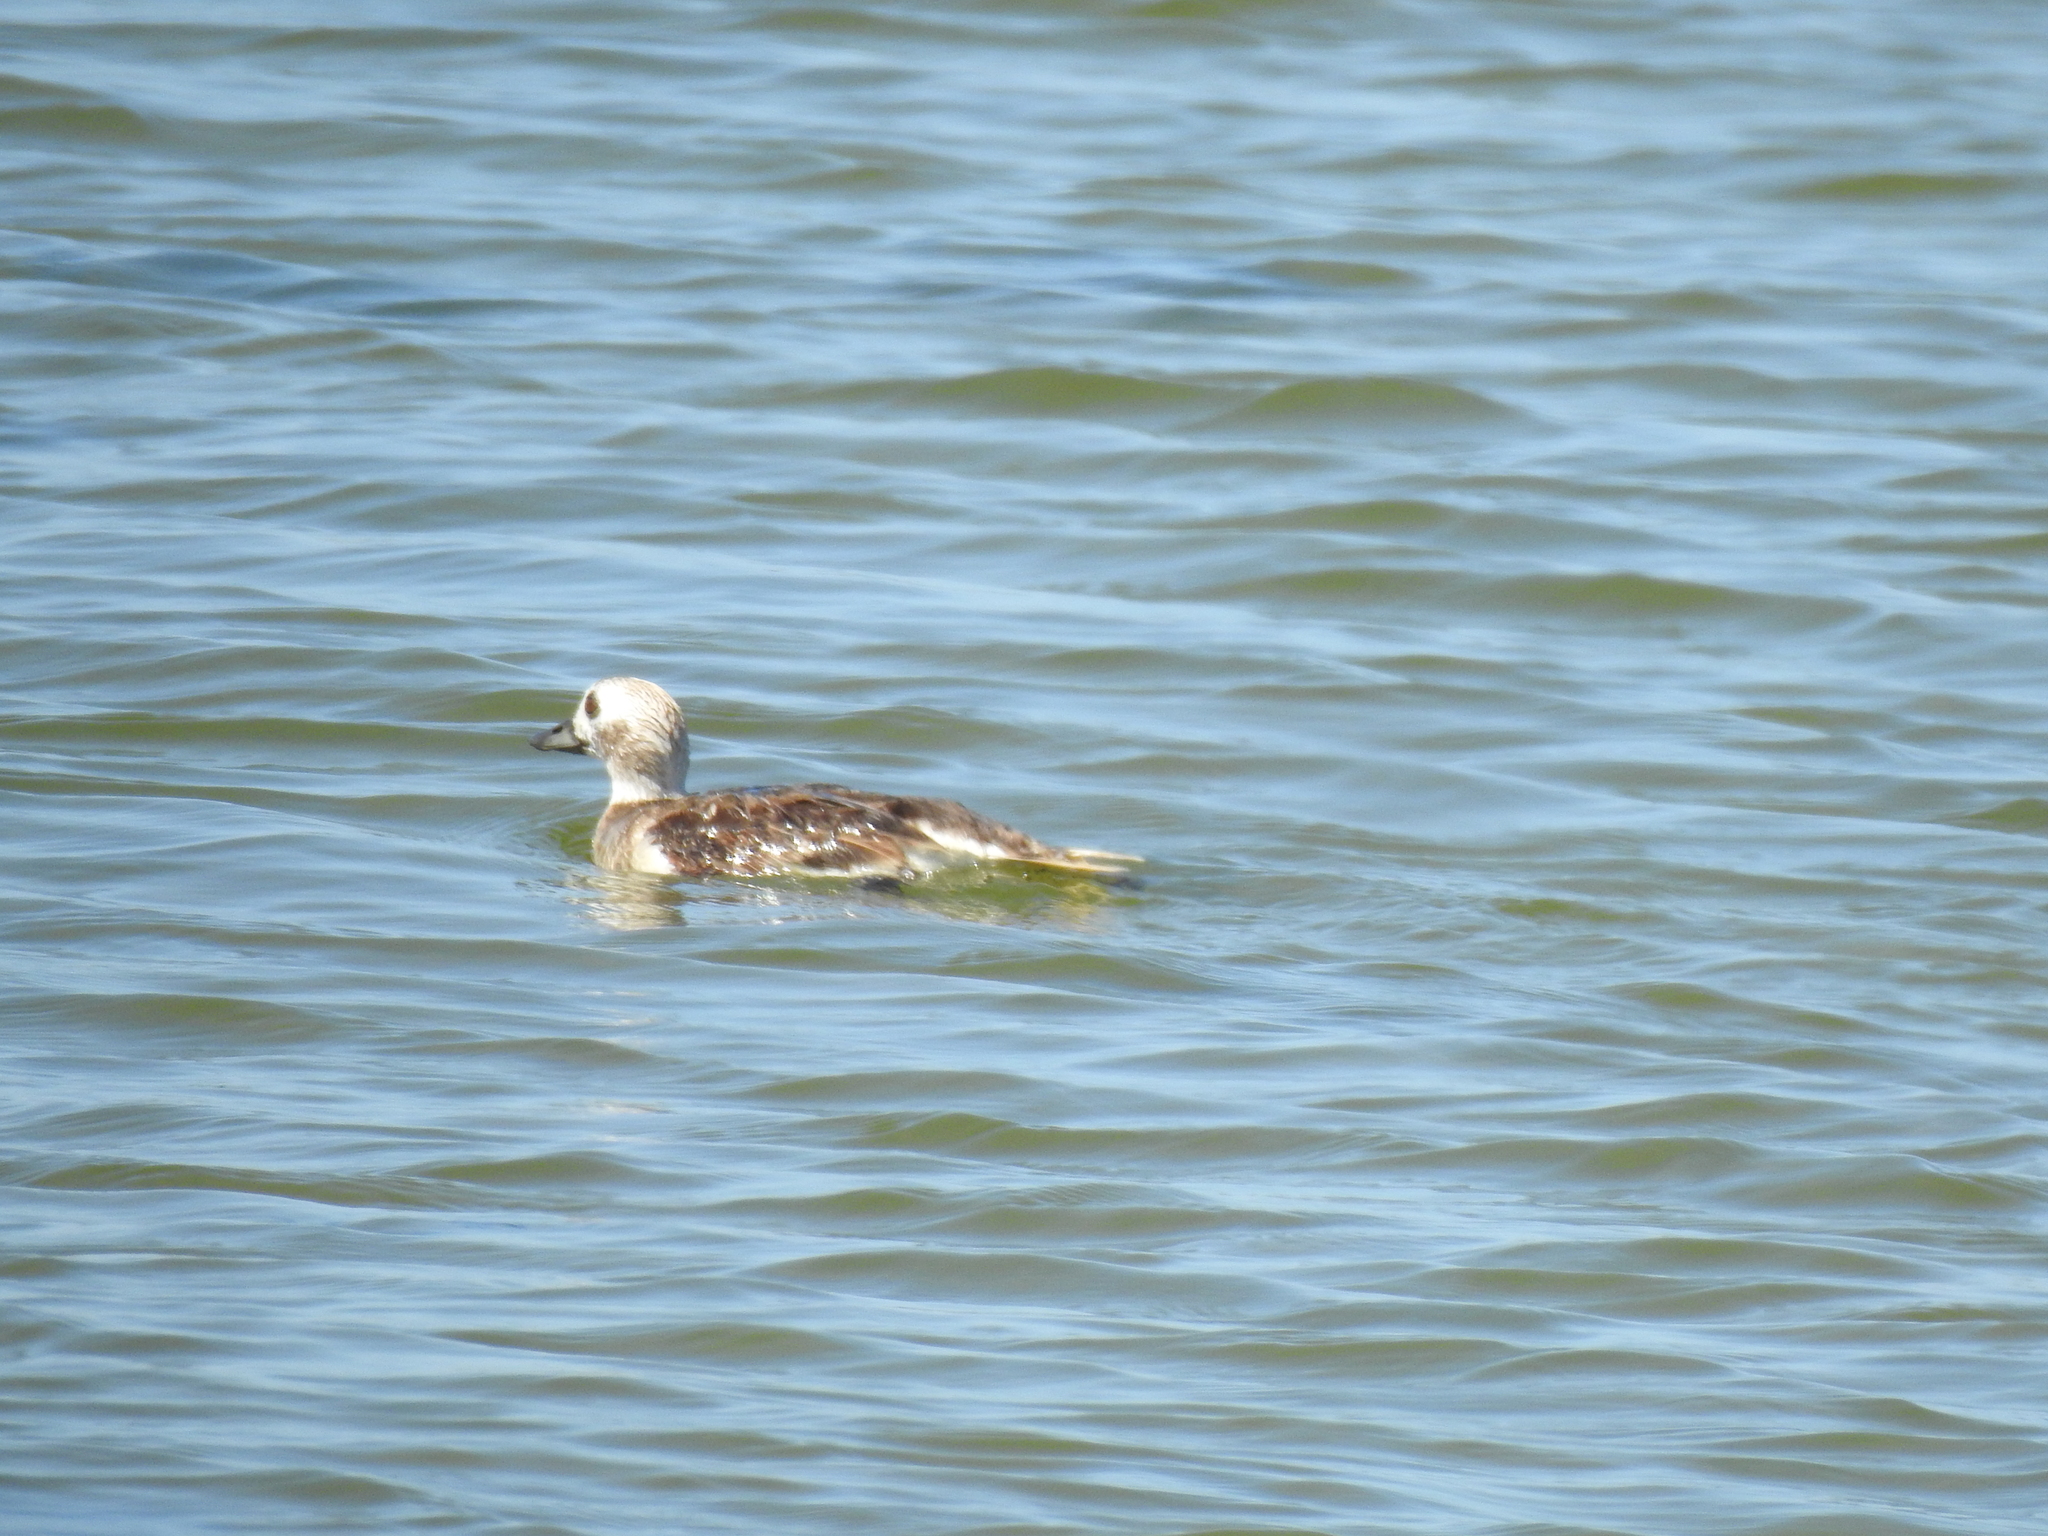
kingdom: Animalia
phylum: Chordata
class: Aves
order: Anseriformes
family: Anatidae
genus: Clangula
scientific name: Clangula hyemalis
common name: Long-tailed duck
